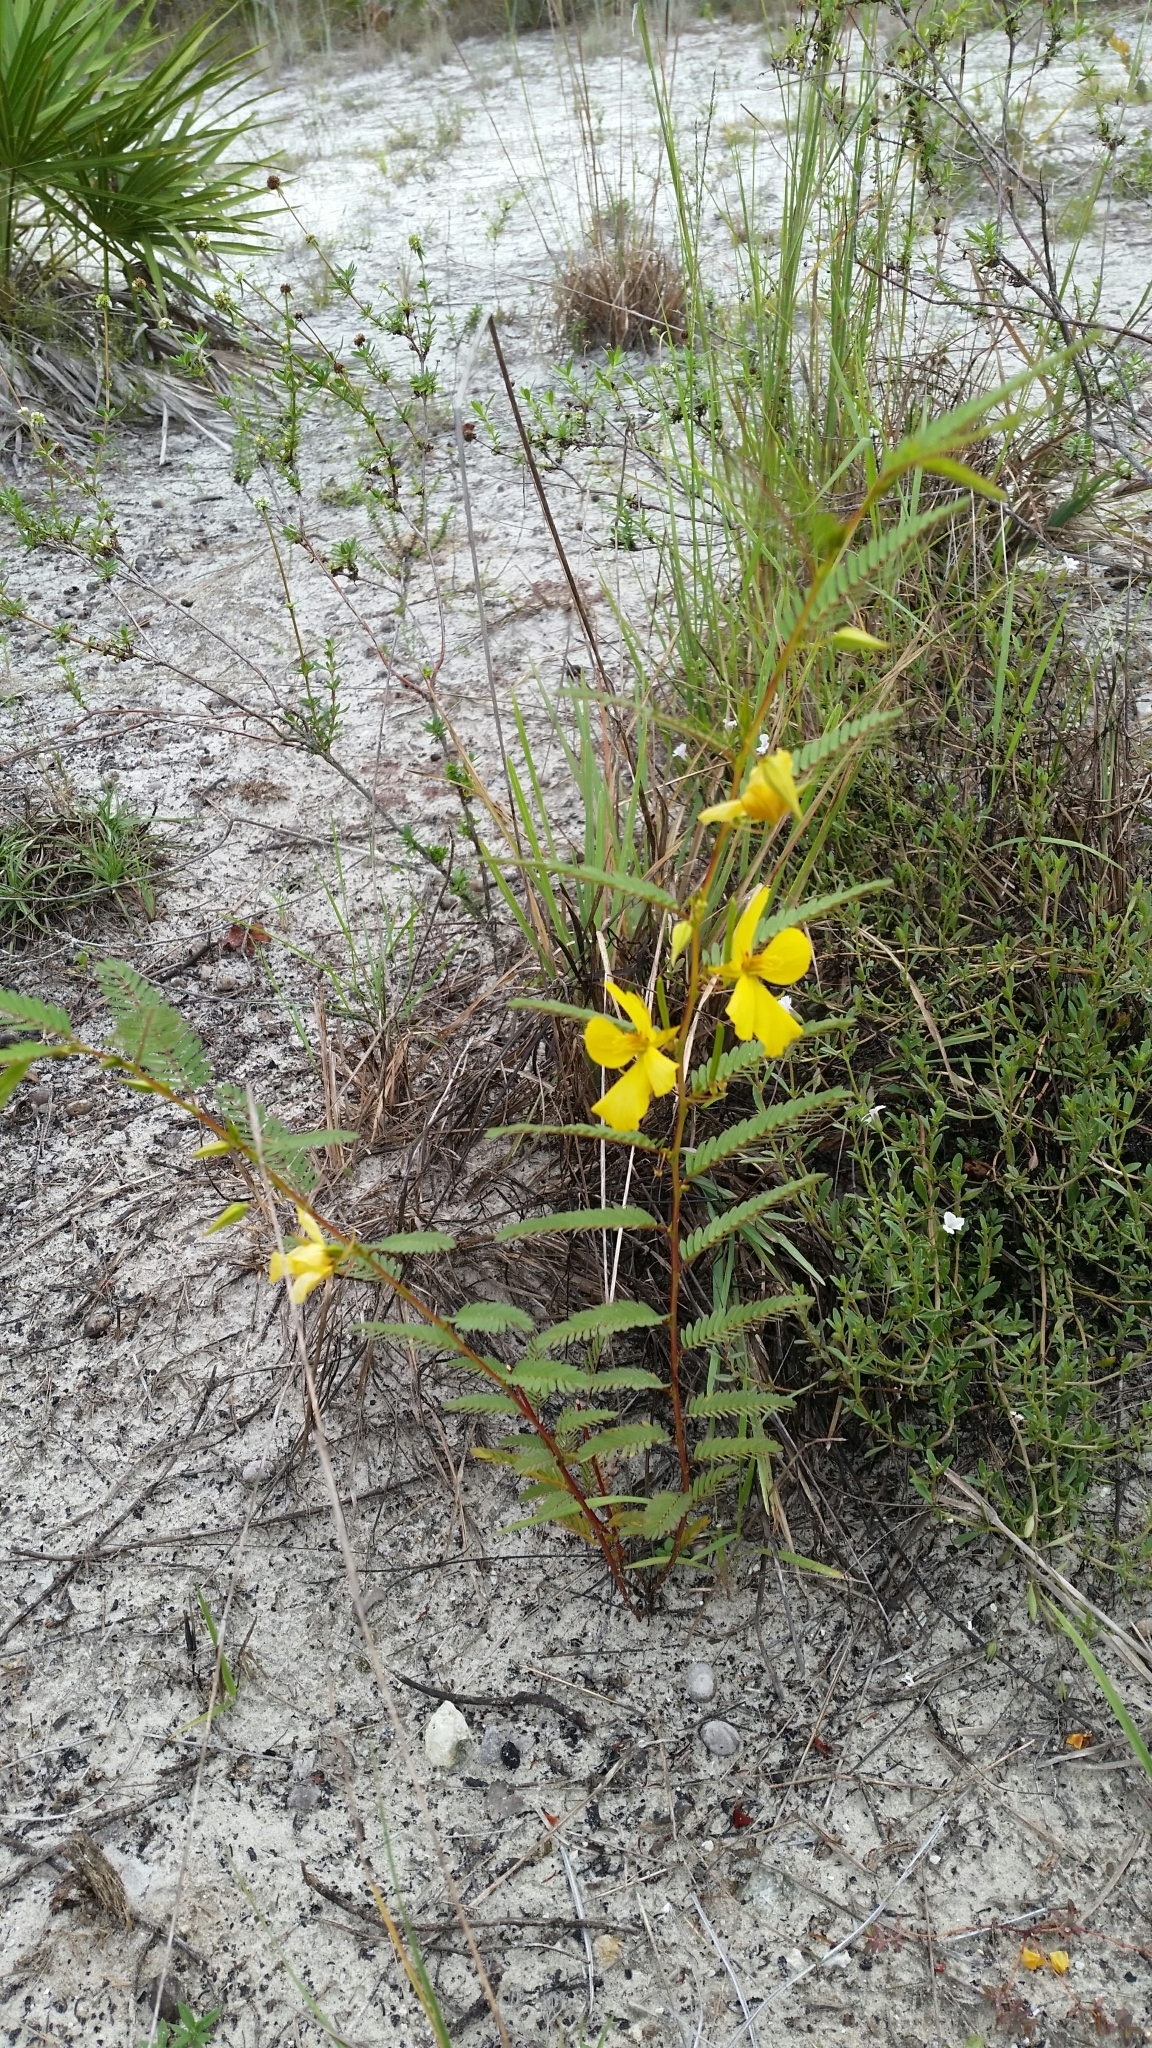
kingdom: Plantae
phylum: Tracheophyta
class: Magnoliopsida
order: Fabales
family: Fabaceae
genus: Chamaecrista
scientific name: Chamaecrista fasciculata
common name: Golden cassia
